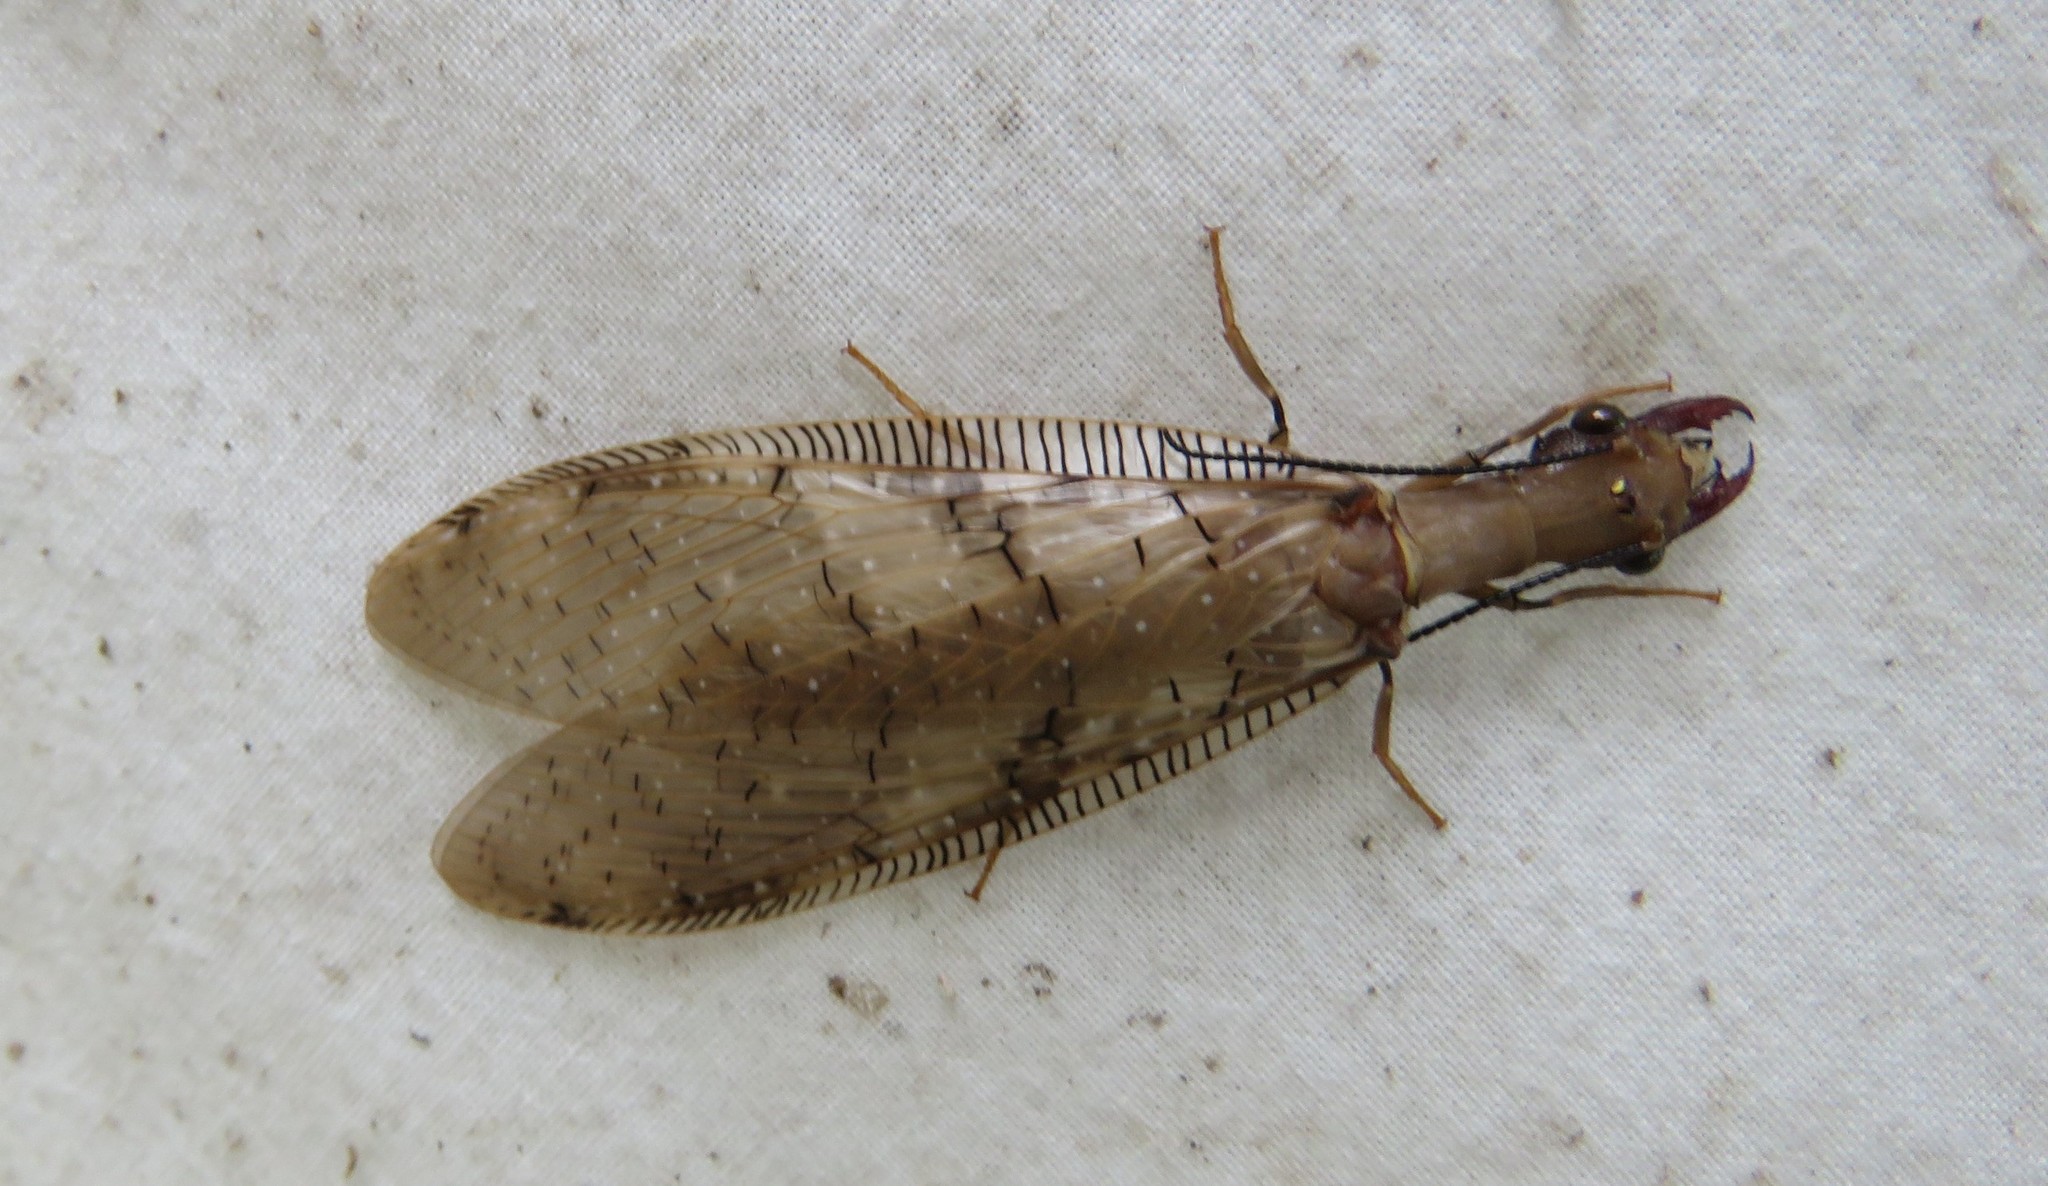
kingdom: Animalia
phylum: Arthropoda
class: Insecta
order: Megaloptera
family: Corydalidae
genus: Corydalus
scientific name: Corydalus flavicornis
